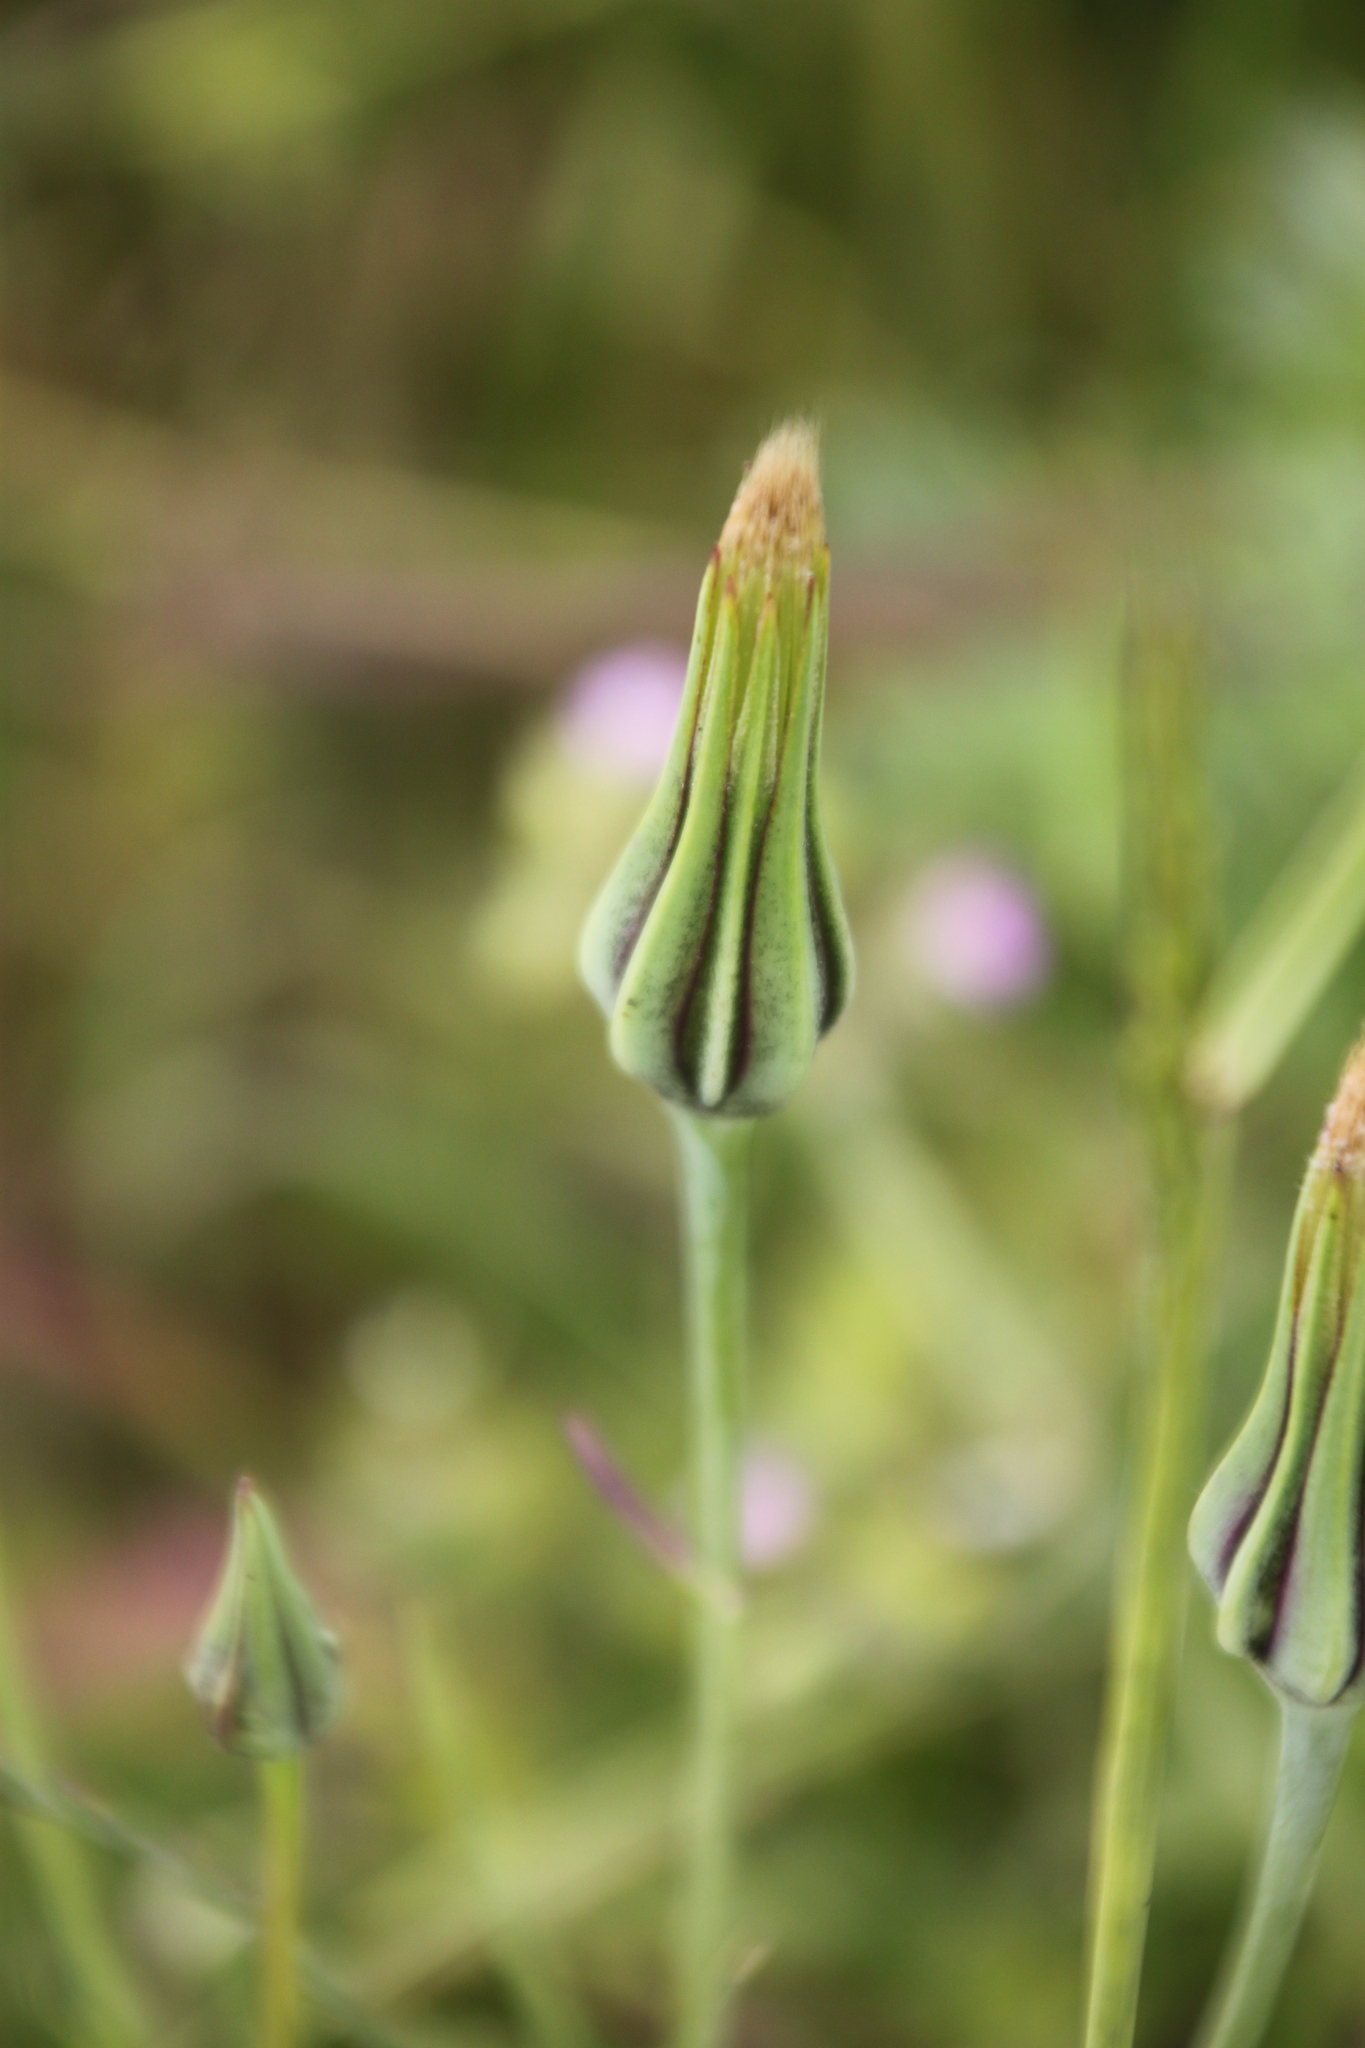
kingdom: Plantae
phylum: Tracheophyta
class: Magnoliopsida
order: Asterales
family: Asteraceae
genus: Tragopogon
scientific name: Tragopogon pratensis
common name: Goat's-beard
